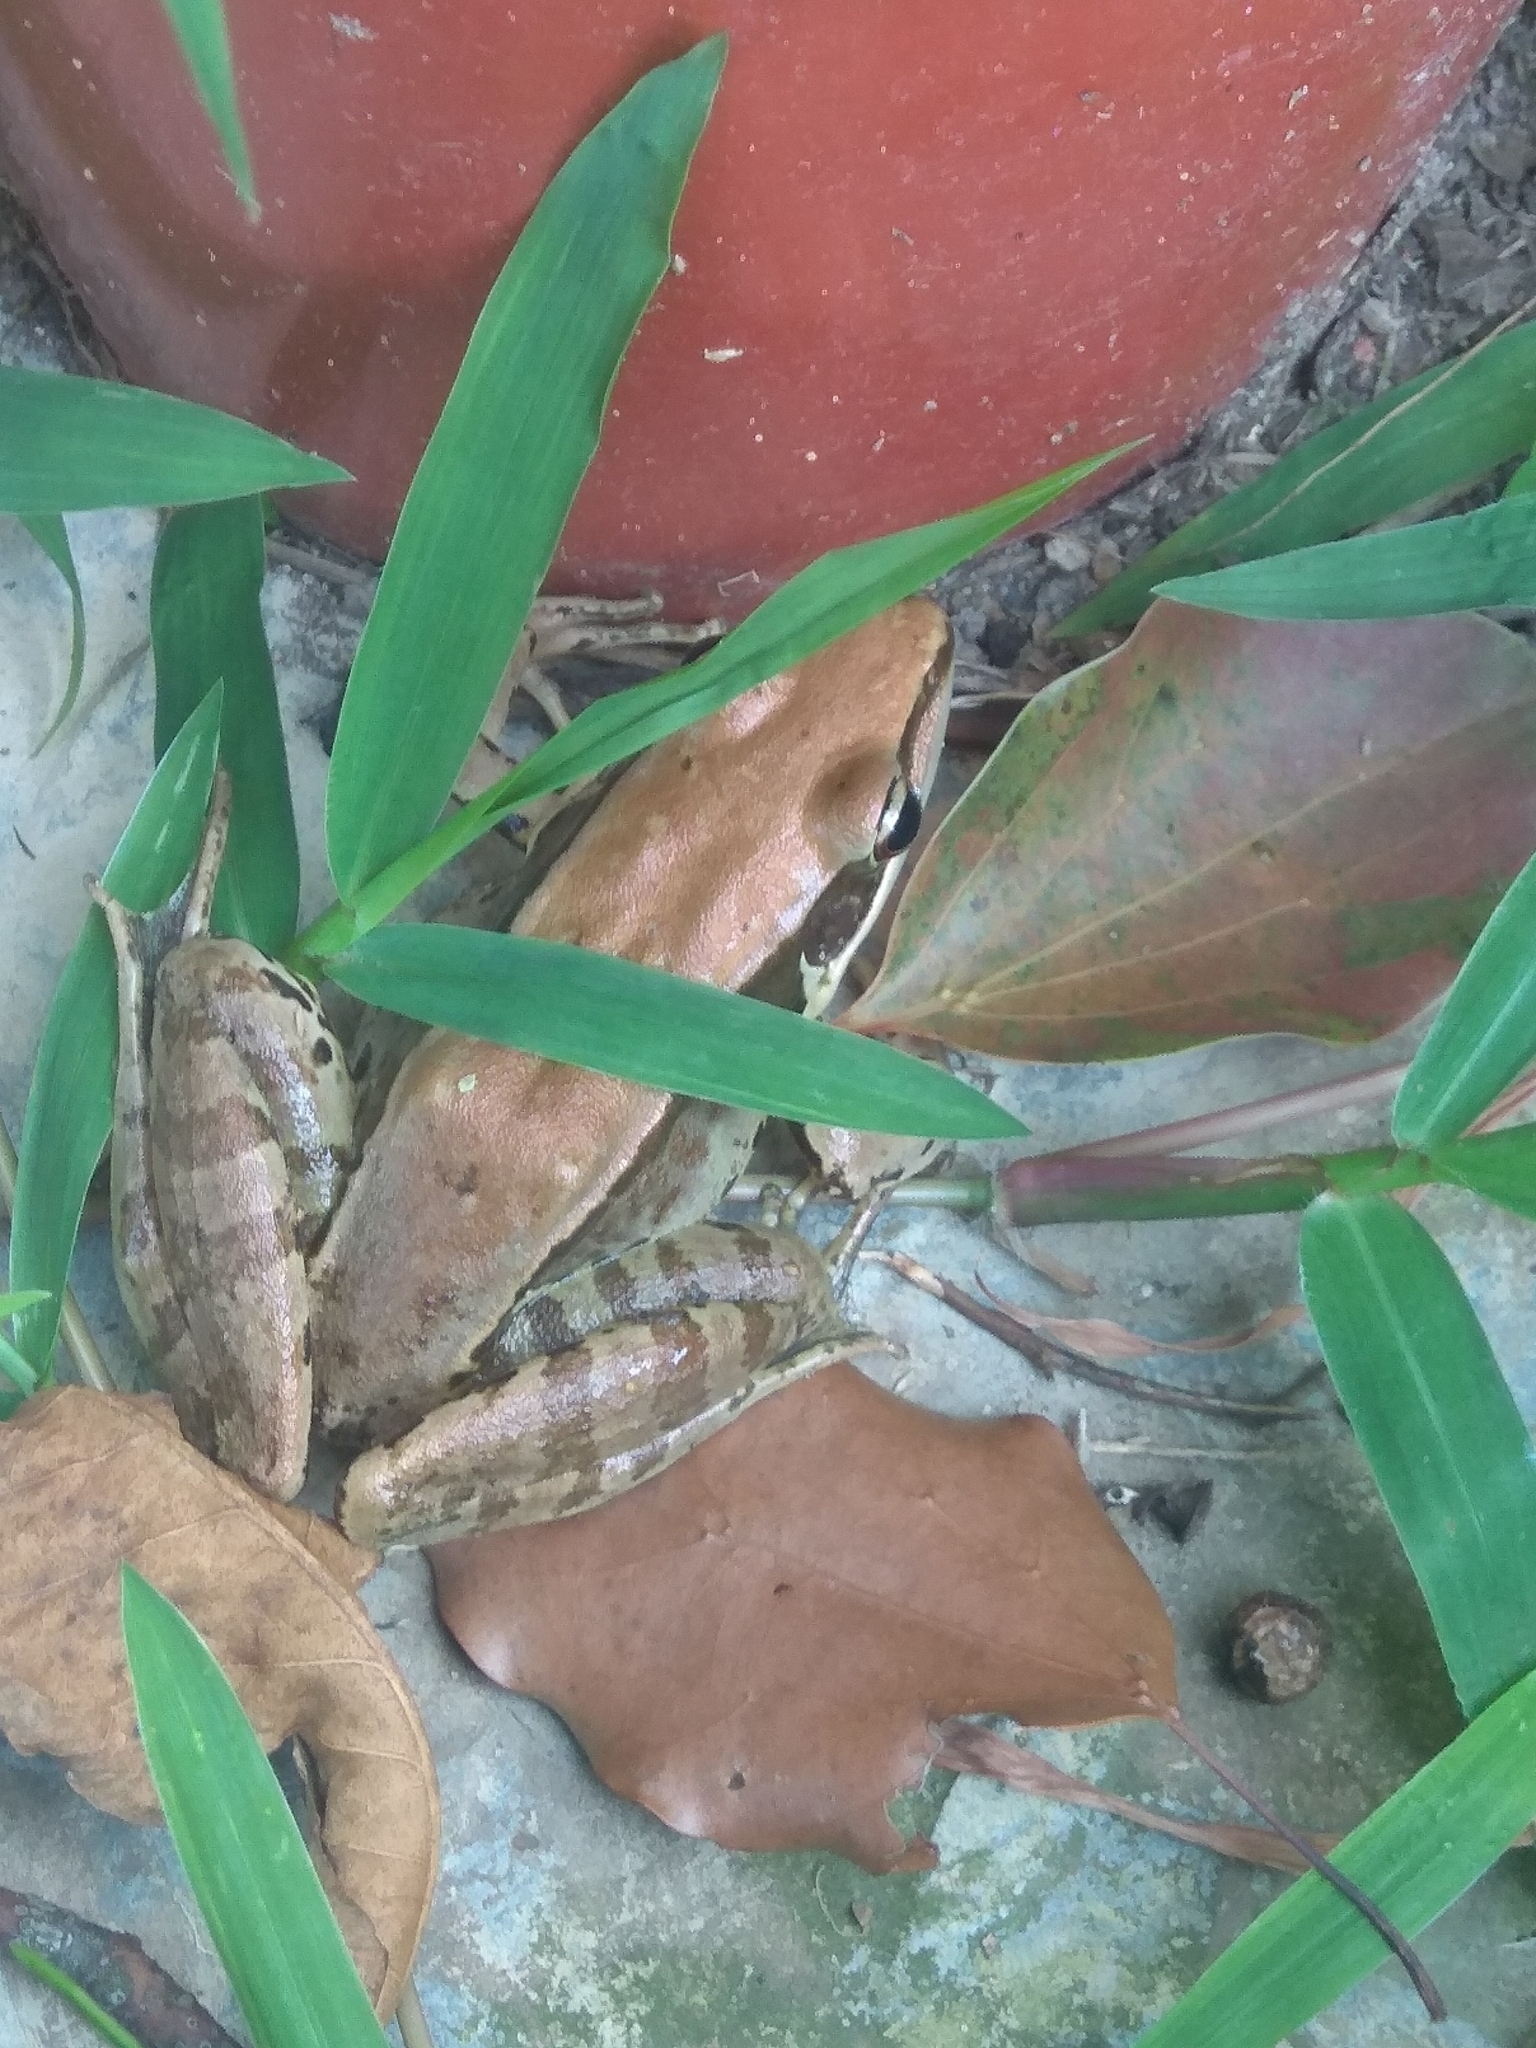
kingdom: Animalia
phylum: Chordata
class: Amphibia
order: Anura
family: Ranidae
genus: Sylvirana
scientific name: Sylvirana guentheri
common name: Guenther's amoy frog
